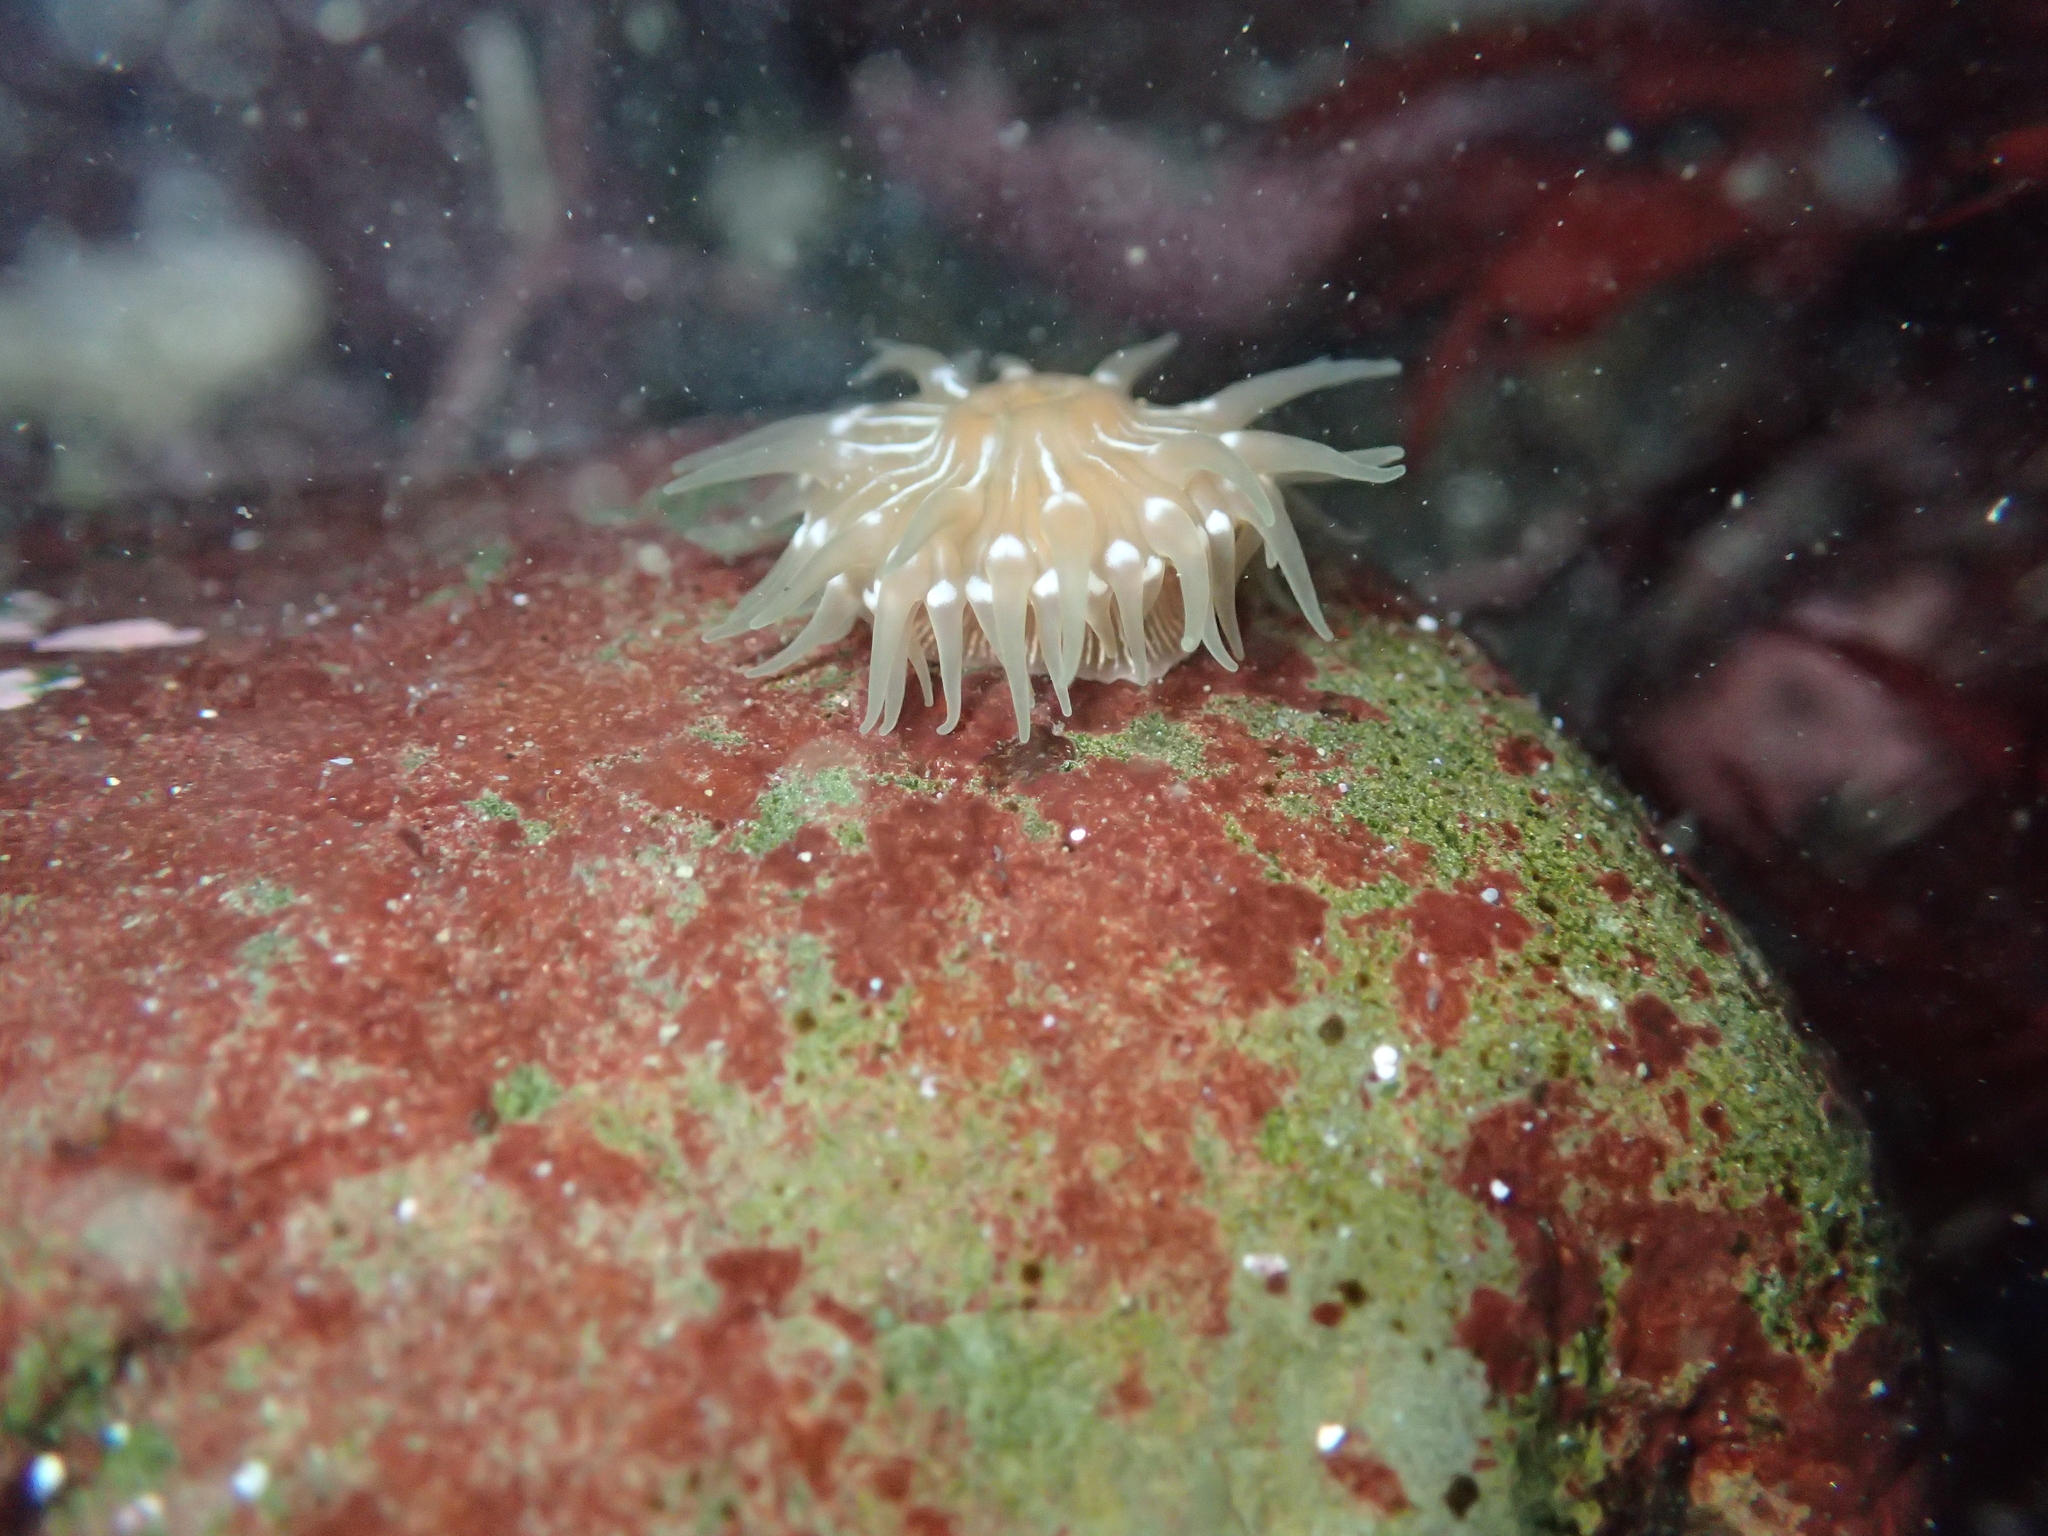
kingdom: Animalia
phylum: Cnidaria
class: Anthozoa
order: Actiniaria
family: Actiniidae
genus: Epiactis
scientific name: Epiactis prolifera
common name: Brooding anemone
